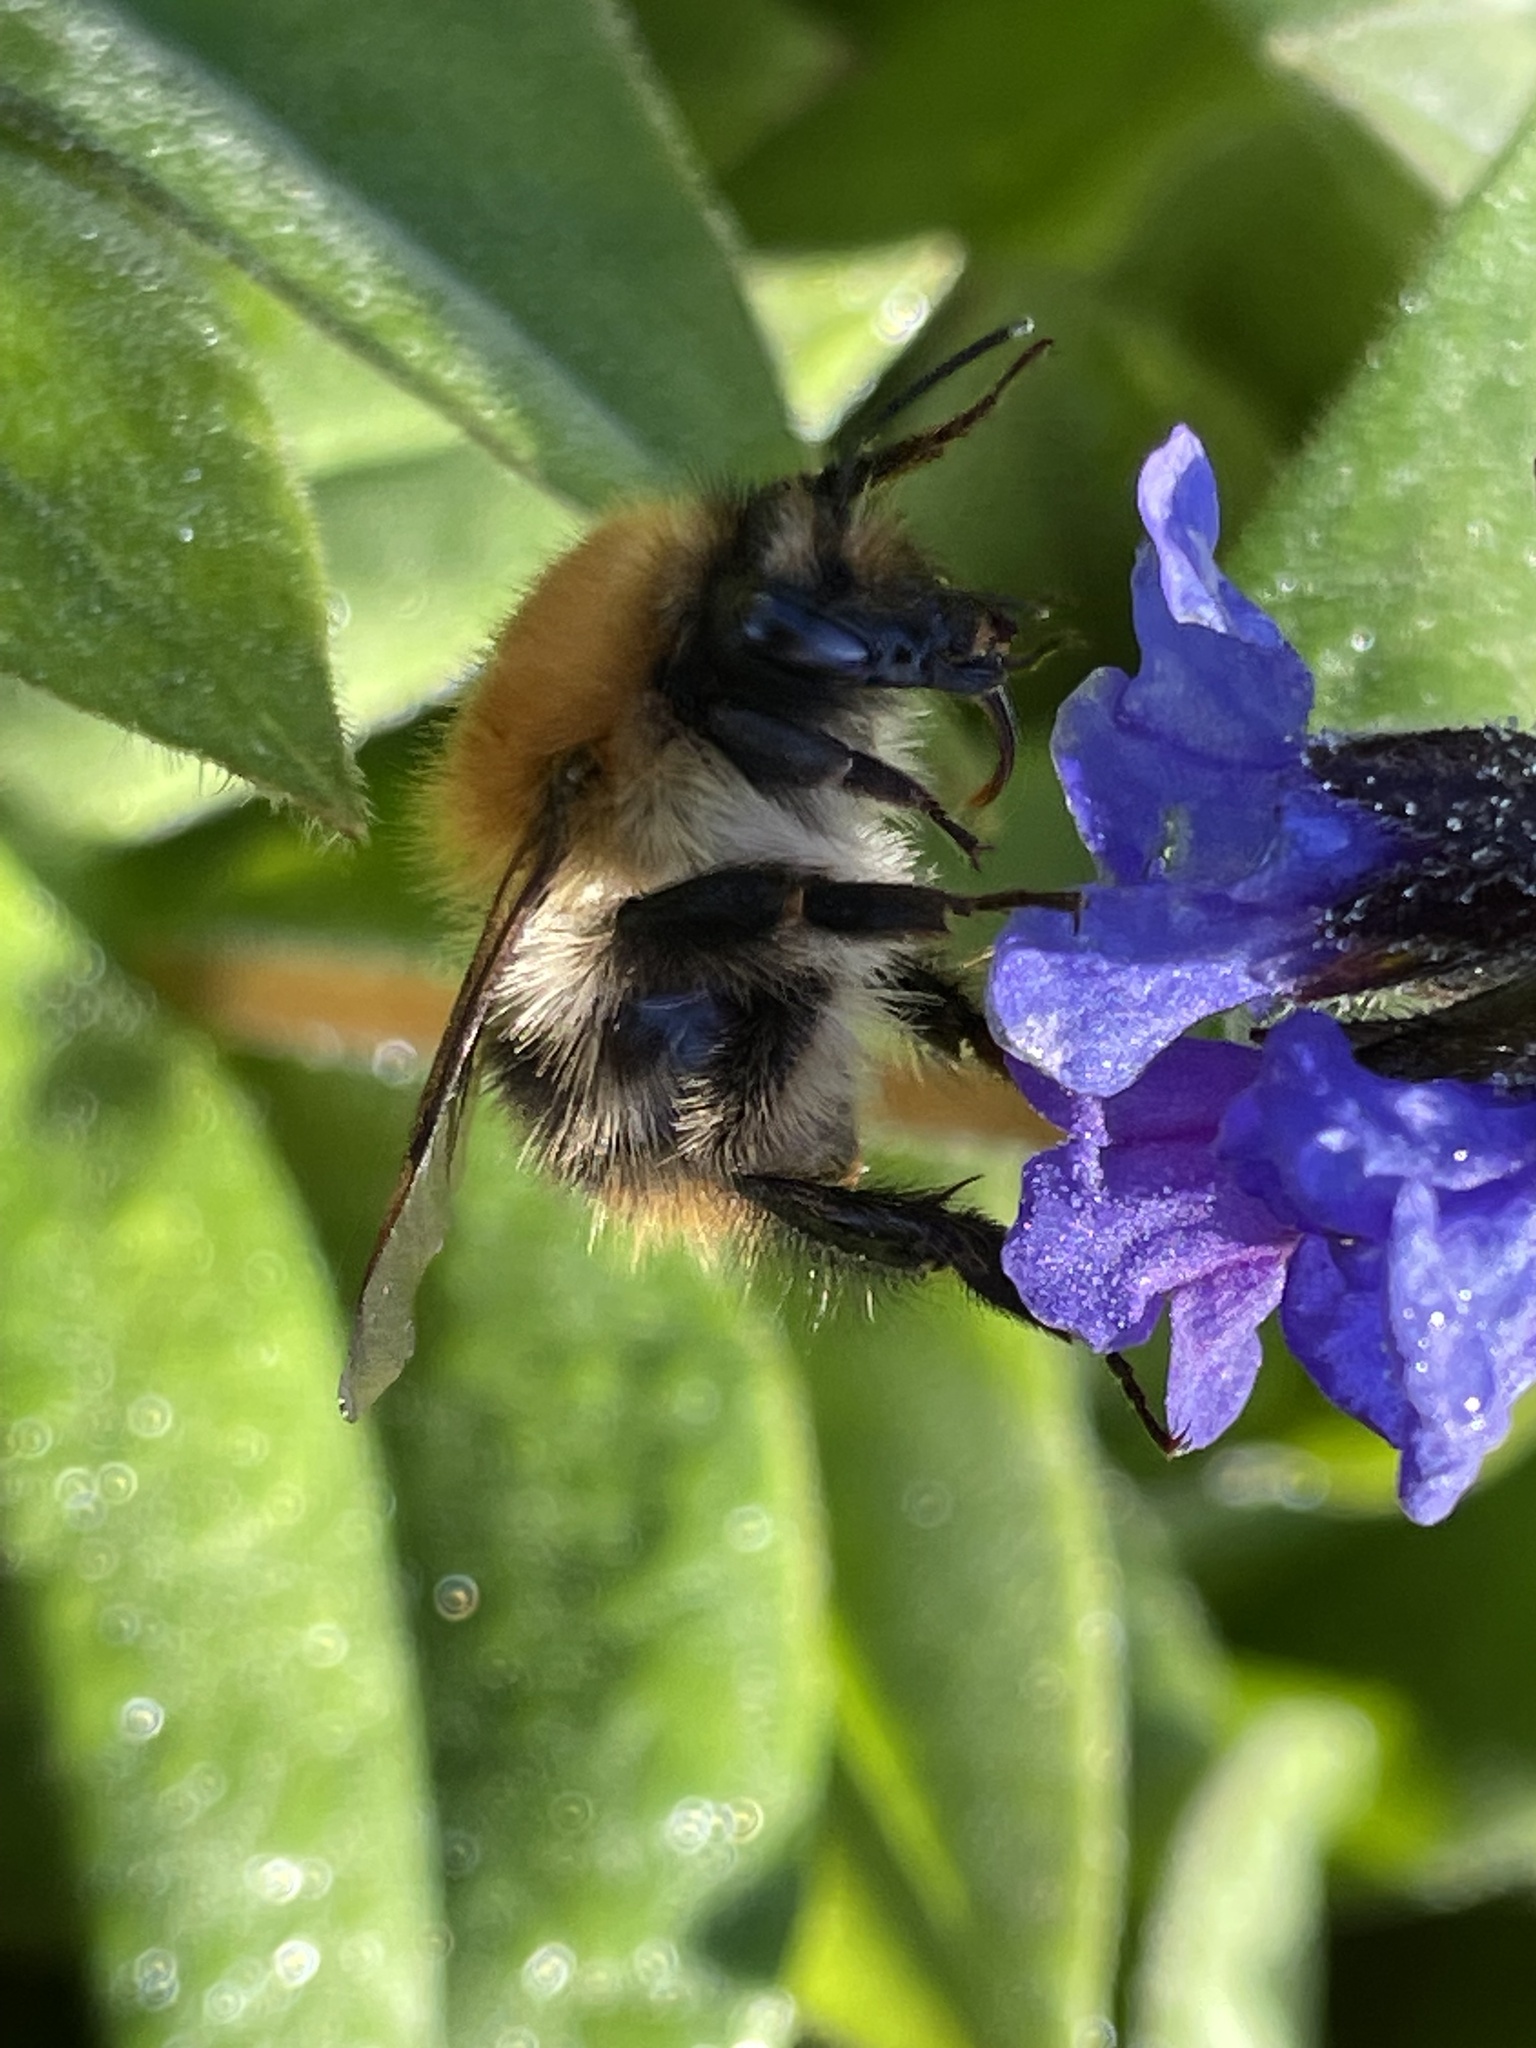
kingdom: Animalia
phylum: Arthropoda
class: Insecta
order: Hymenoptera
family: Apidae
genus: Bombus
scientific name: Bombus pascuorum
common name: Common carder bee
